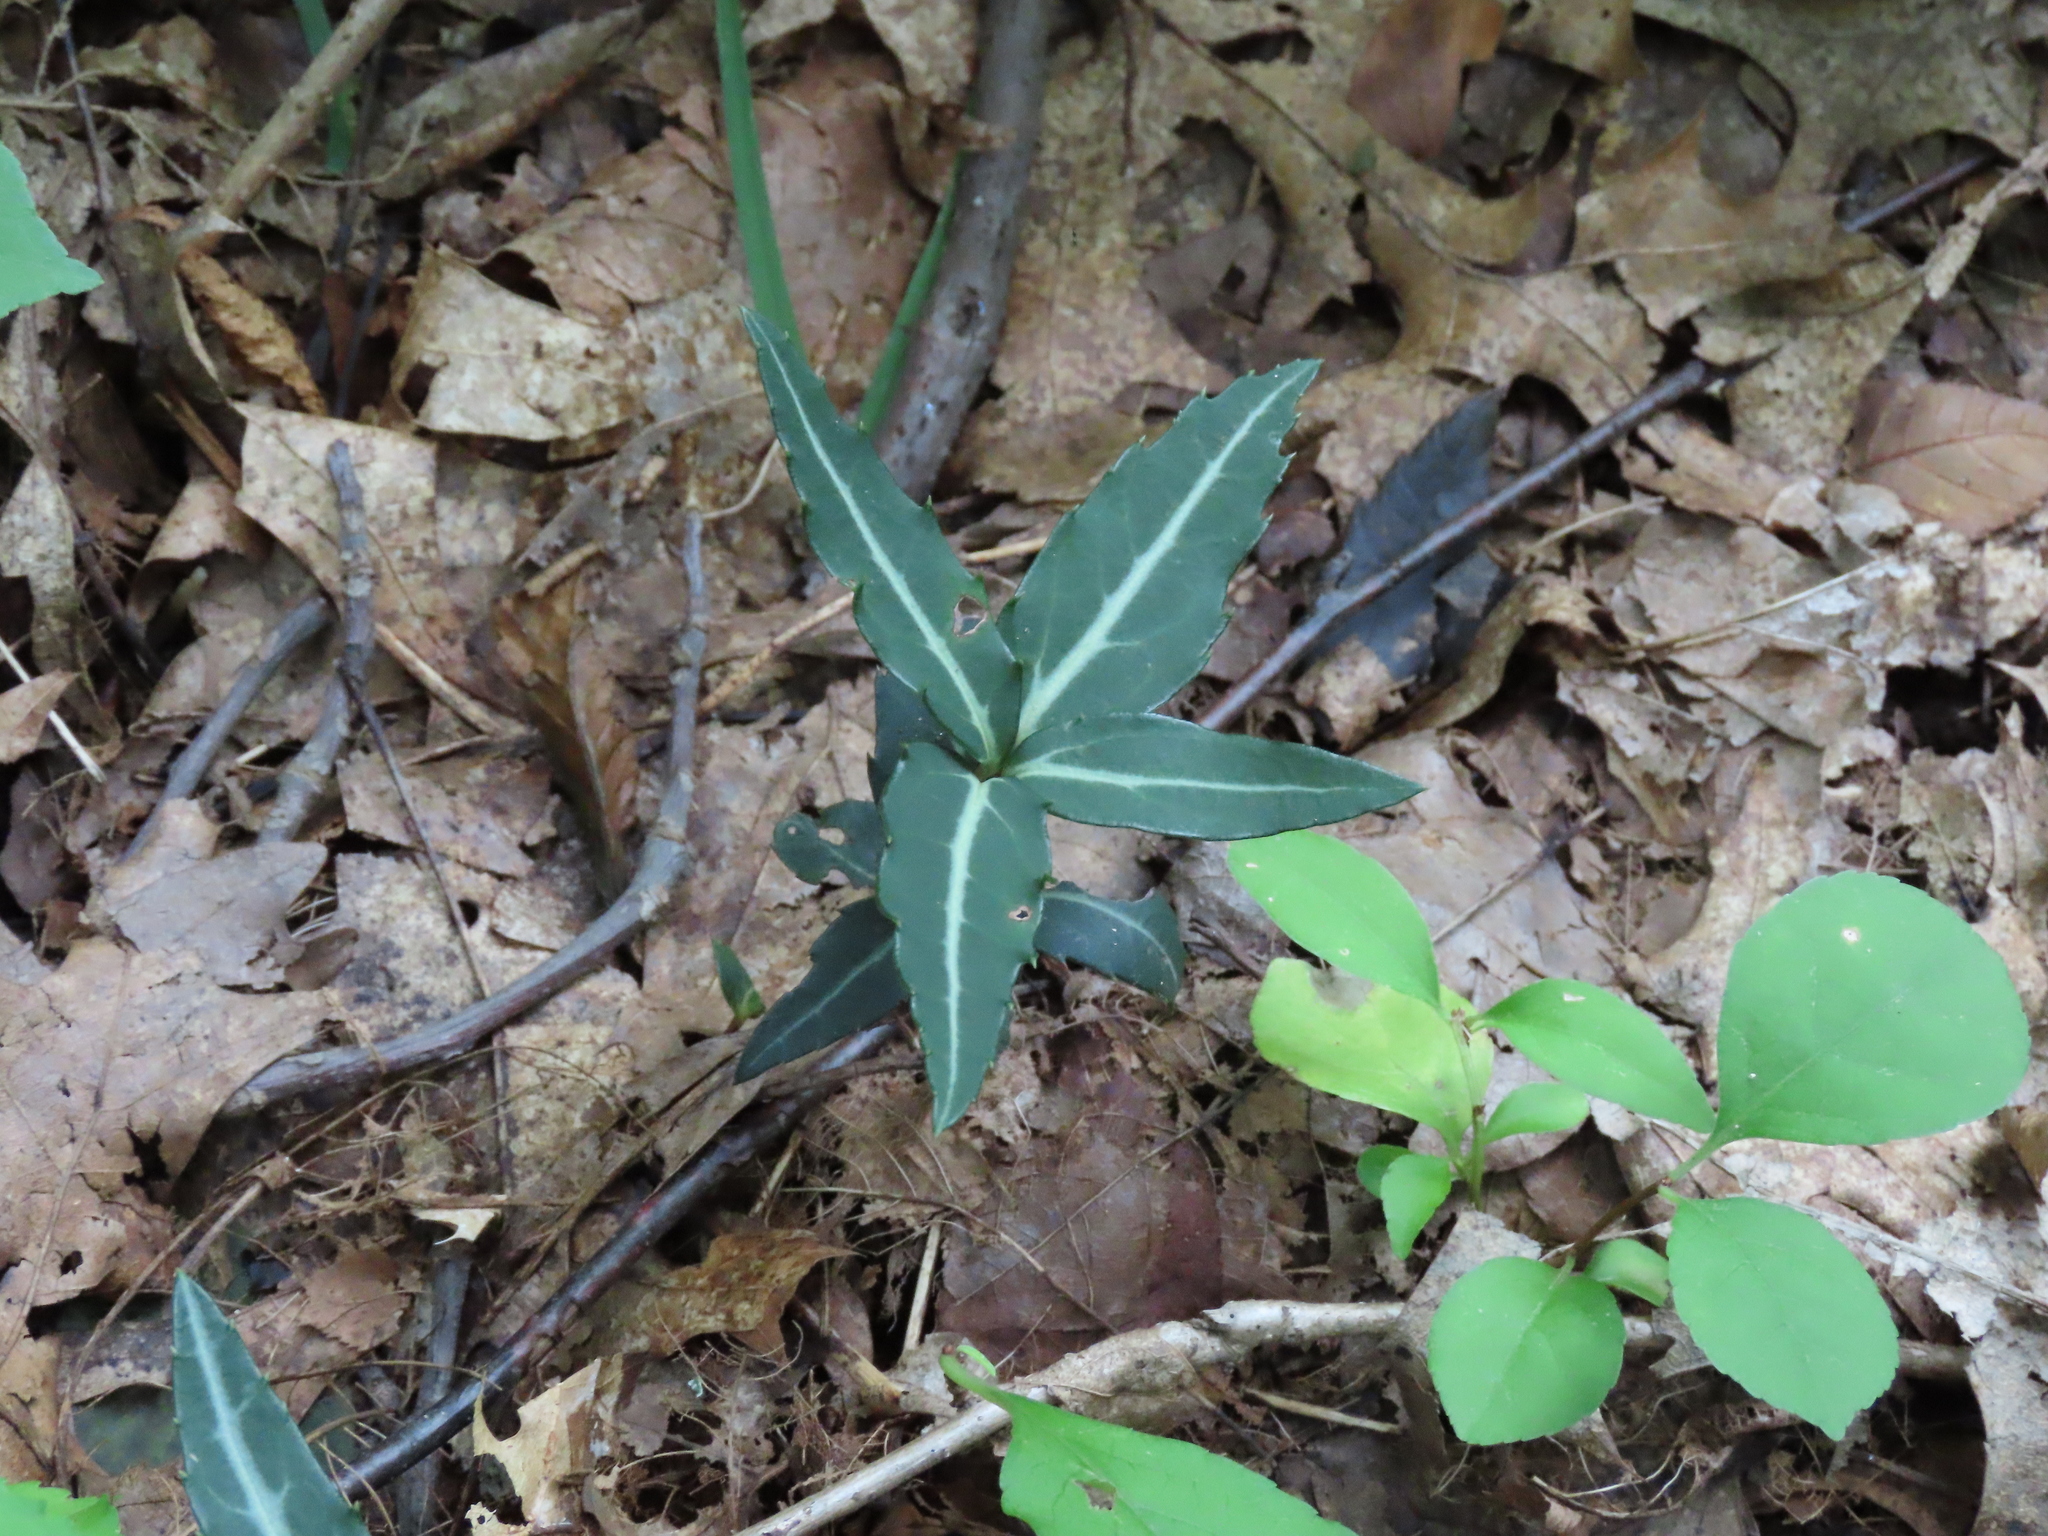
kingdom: Plantae
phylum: Tracheophyta
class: Magnoliopsida
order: Ericales
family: Ericaceae
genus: Chimaphila
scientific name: Chimaphila maculata
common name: Spotted pipsissewa
